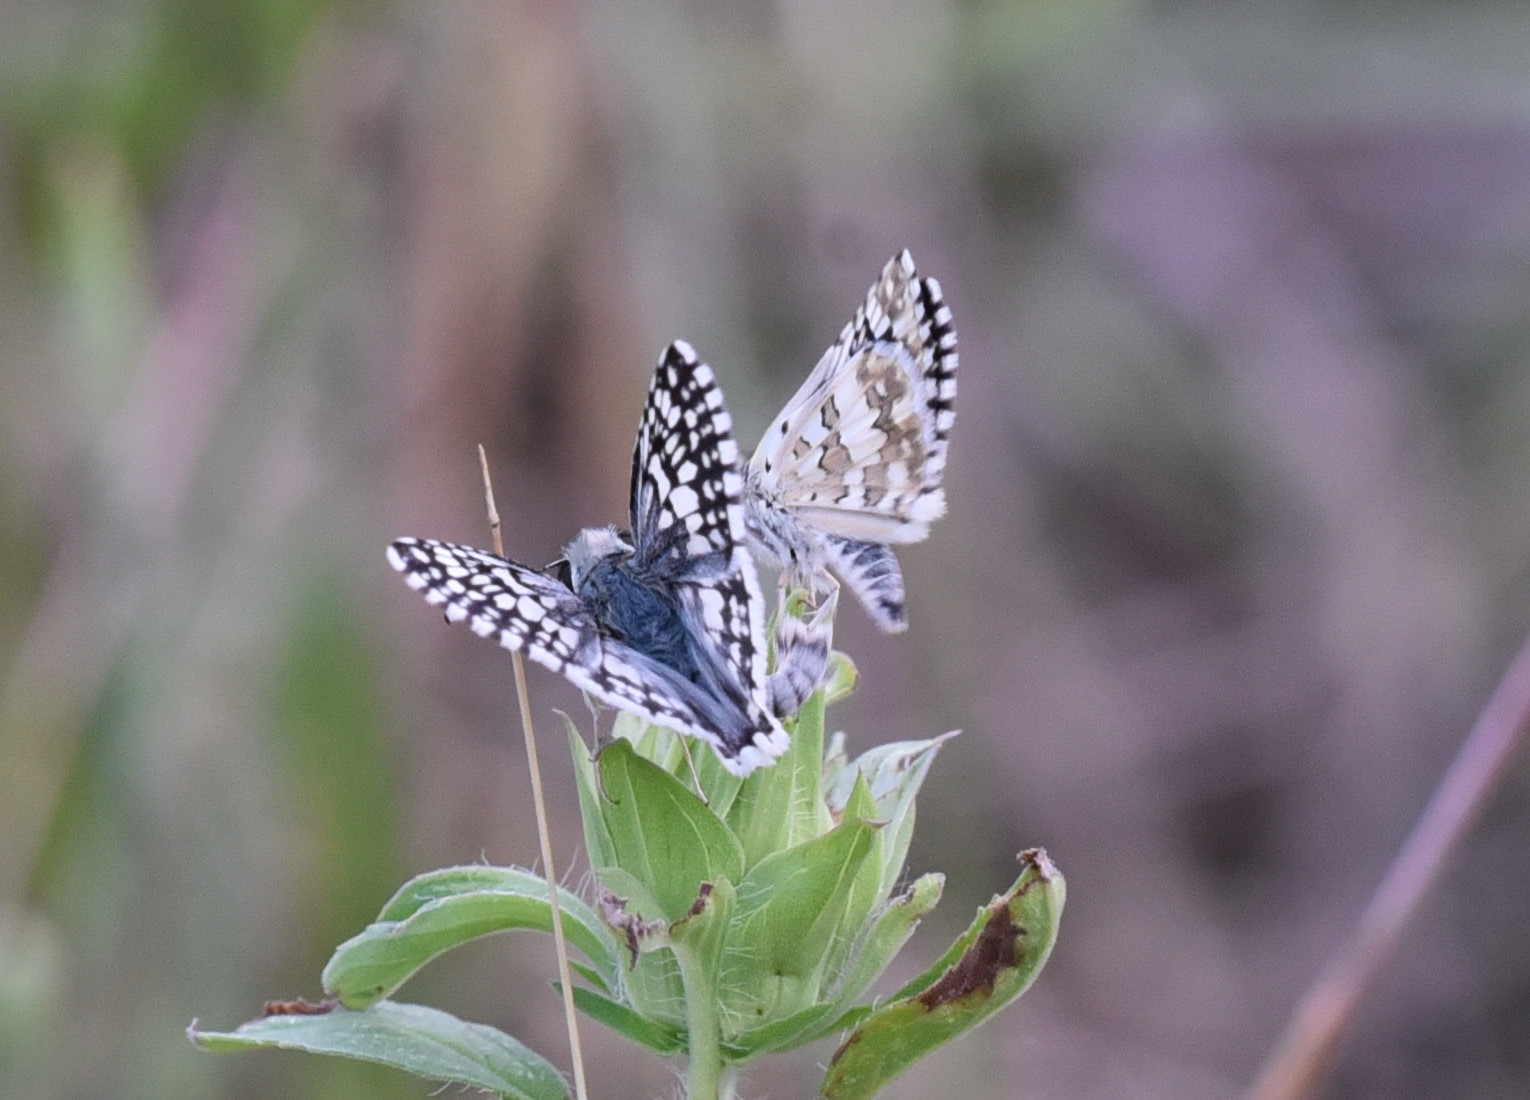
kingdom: Animalia
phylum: Arthropoda
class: Insecta
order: Lepidoptera
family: Hesperiidae
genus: Burnsius
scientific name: Burnsius
